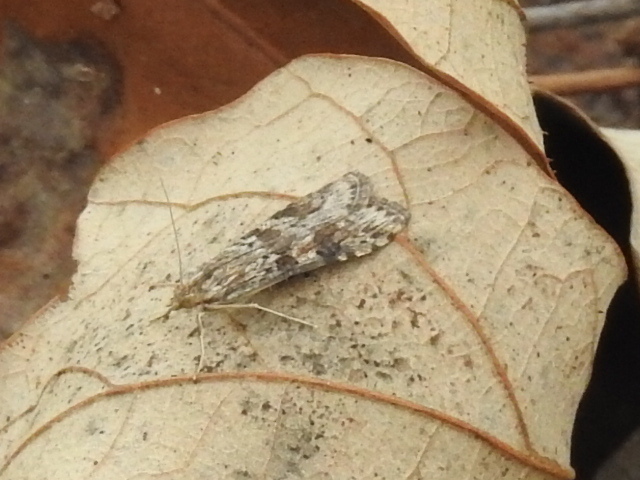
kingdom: Animalia
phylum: Arthropoda
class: Insecta
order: Lepidoptera
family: Crambidae
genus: Nomophila
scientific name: Nomophila nearctica
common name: American rush veneer
